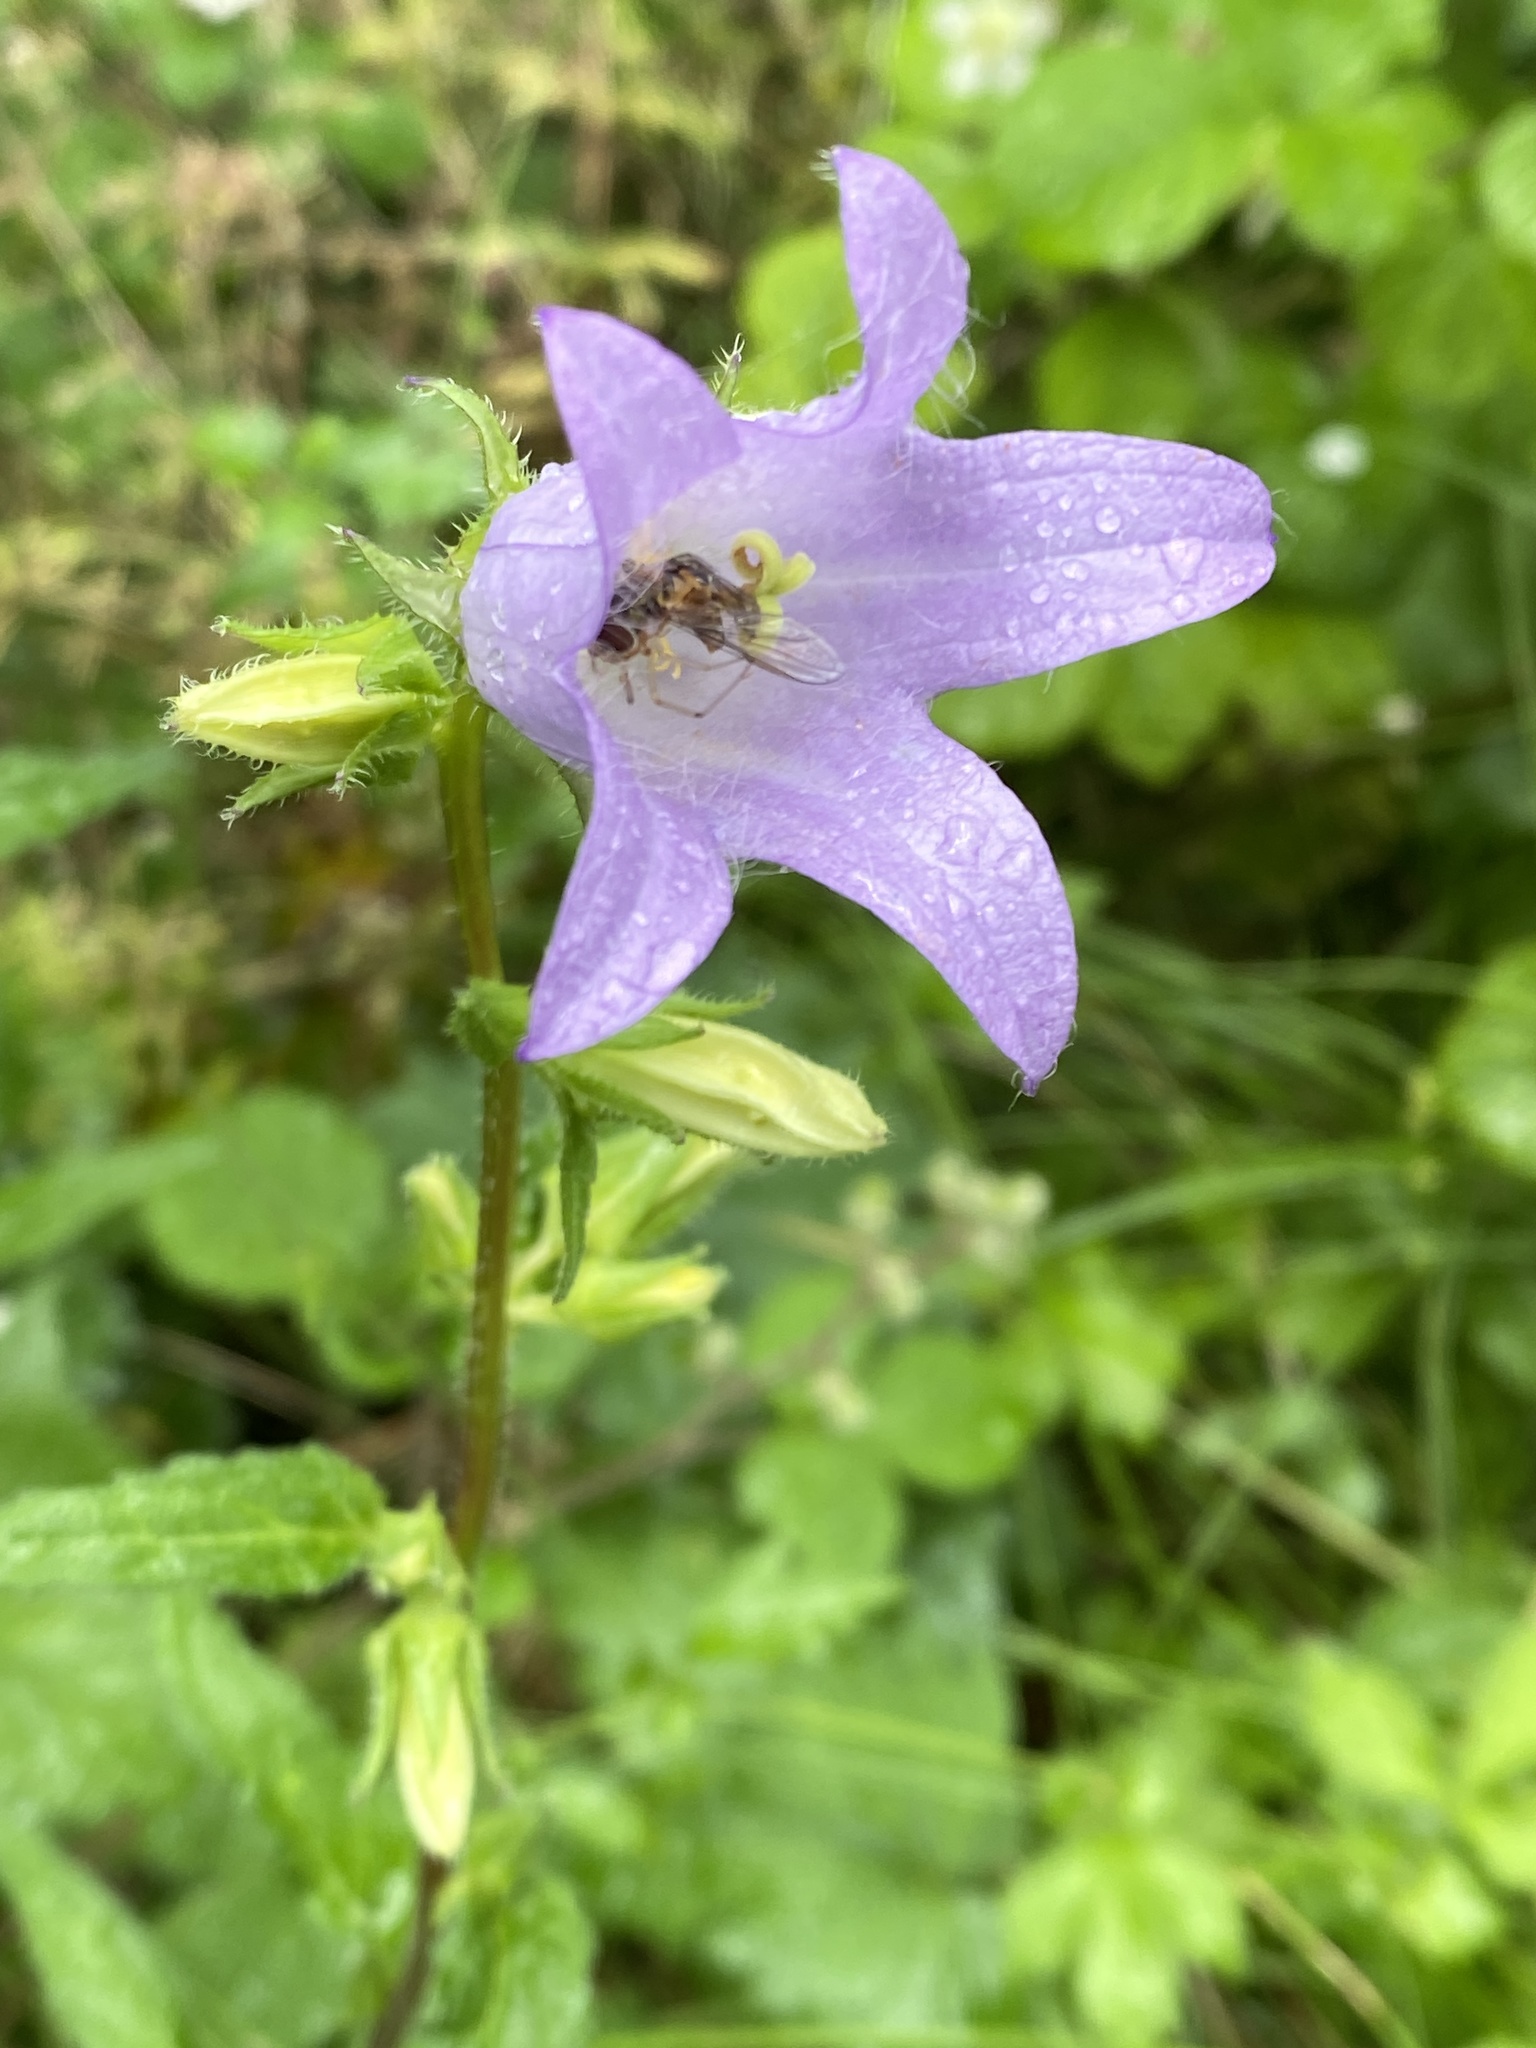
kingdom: Plantae
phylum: Tracheophyta
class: Magnoliopsida
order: Asterales
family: Campanulaceae
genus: Campanula
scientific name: Campanula trachelium
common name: Nettle-leaved bellflower
